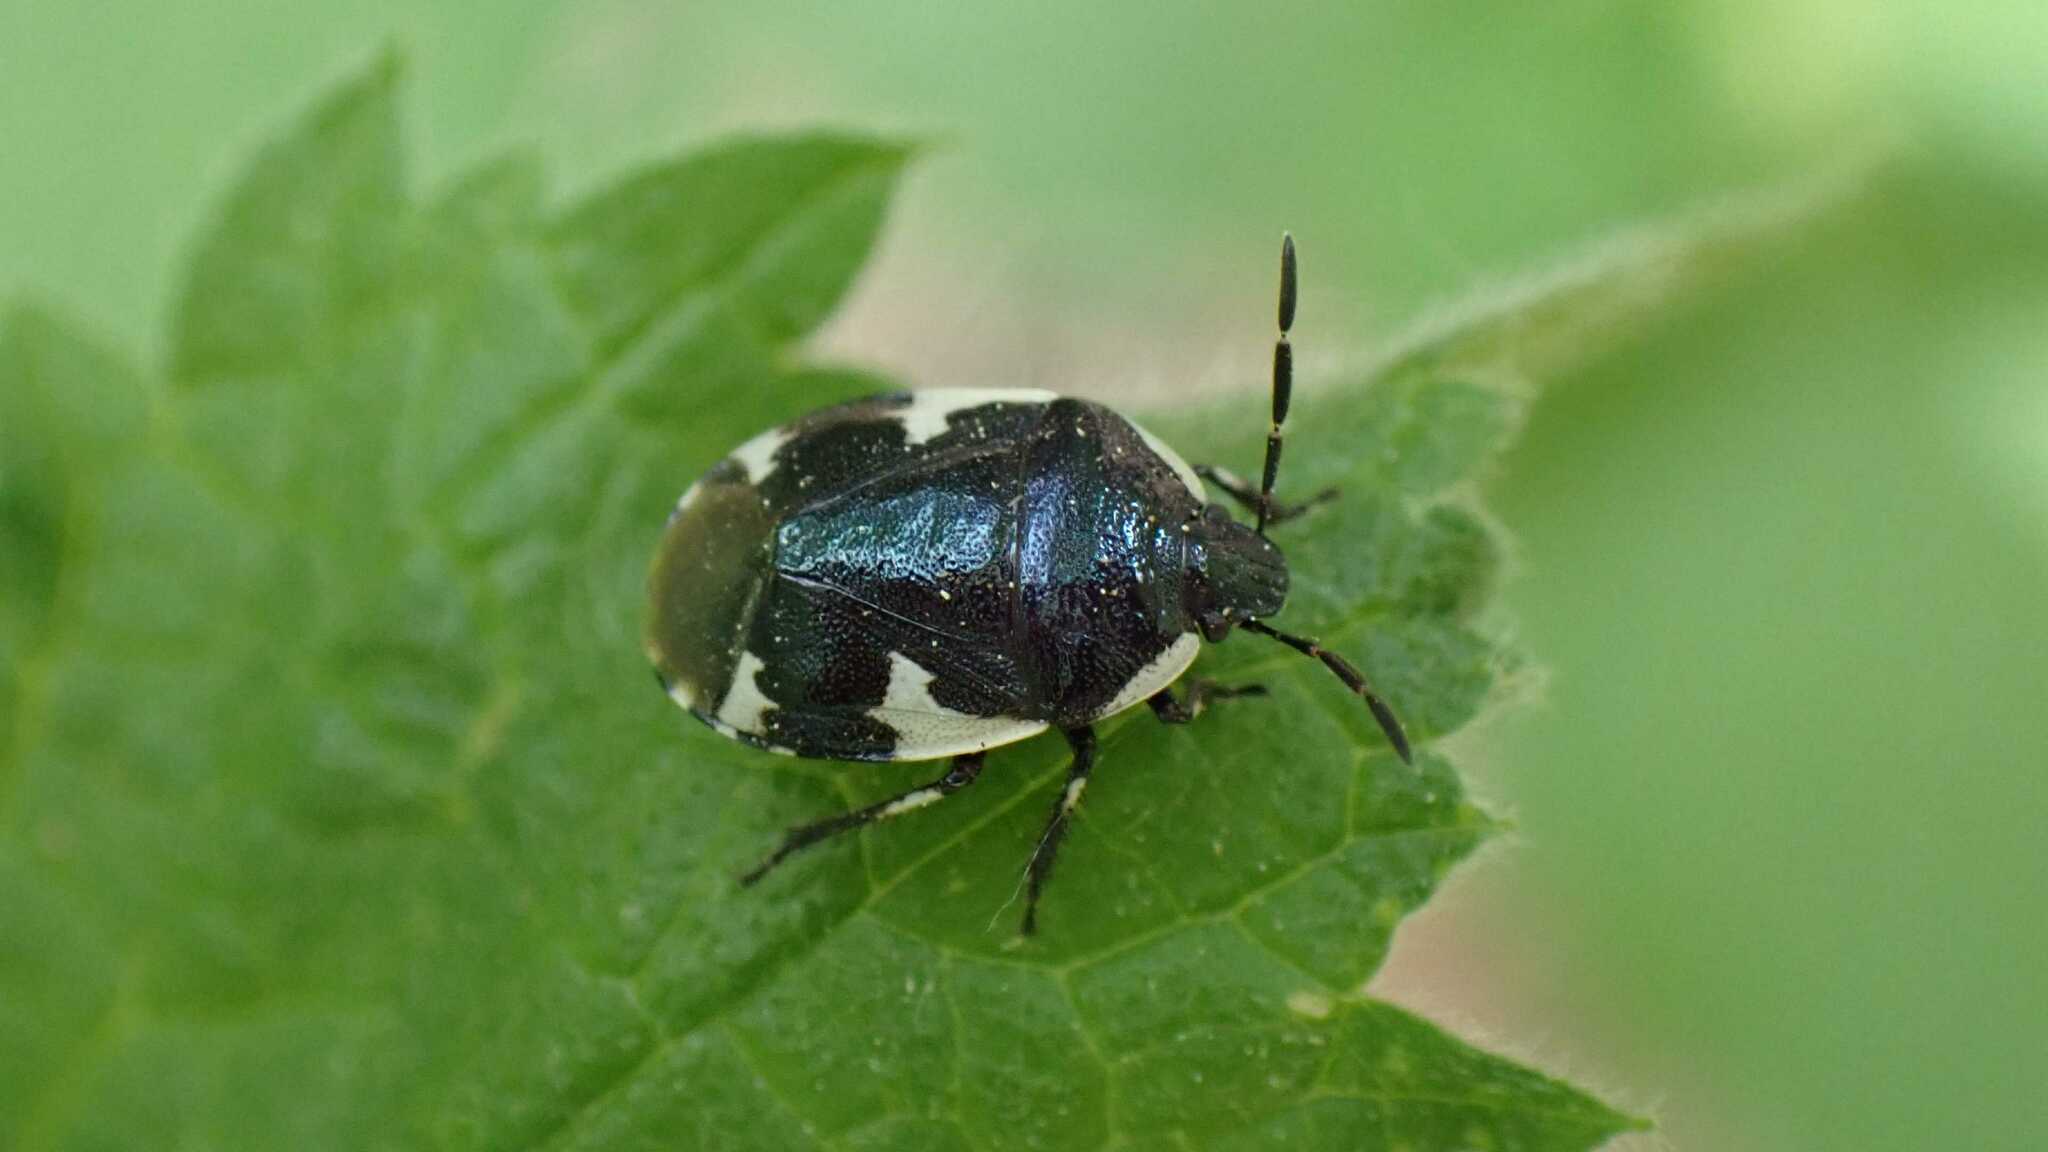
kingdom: Animalia
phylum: Arthropoda
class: Insecta
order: Hemiptera
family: Cydnidae
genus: Tritomegas
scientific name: Tritomegas sexmaculatus
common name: Rambur's pied shieldbug
